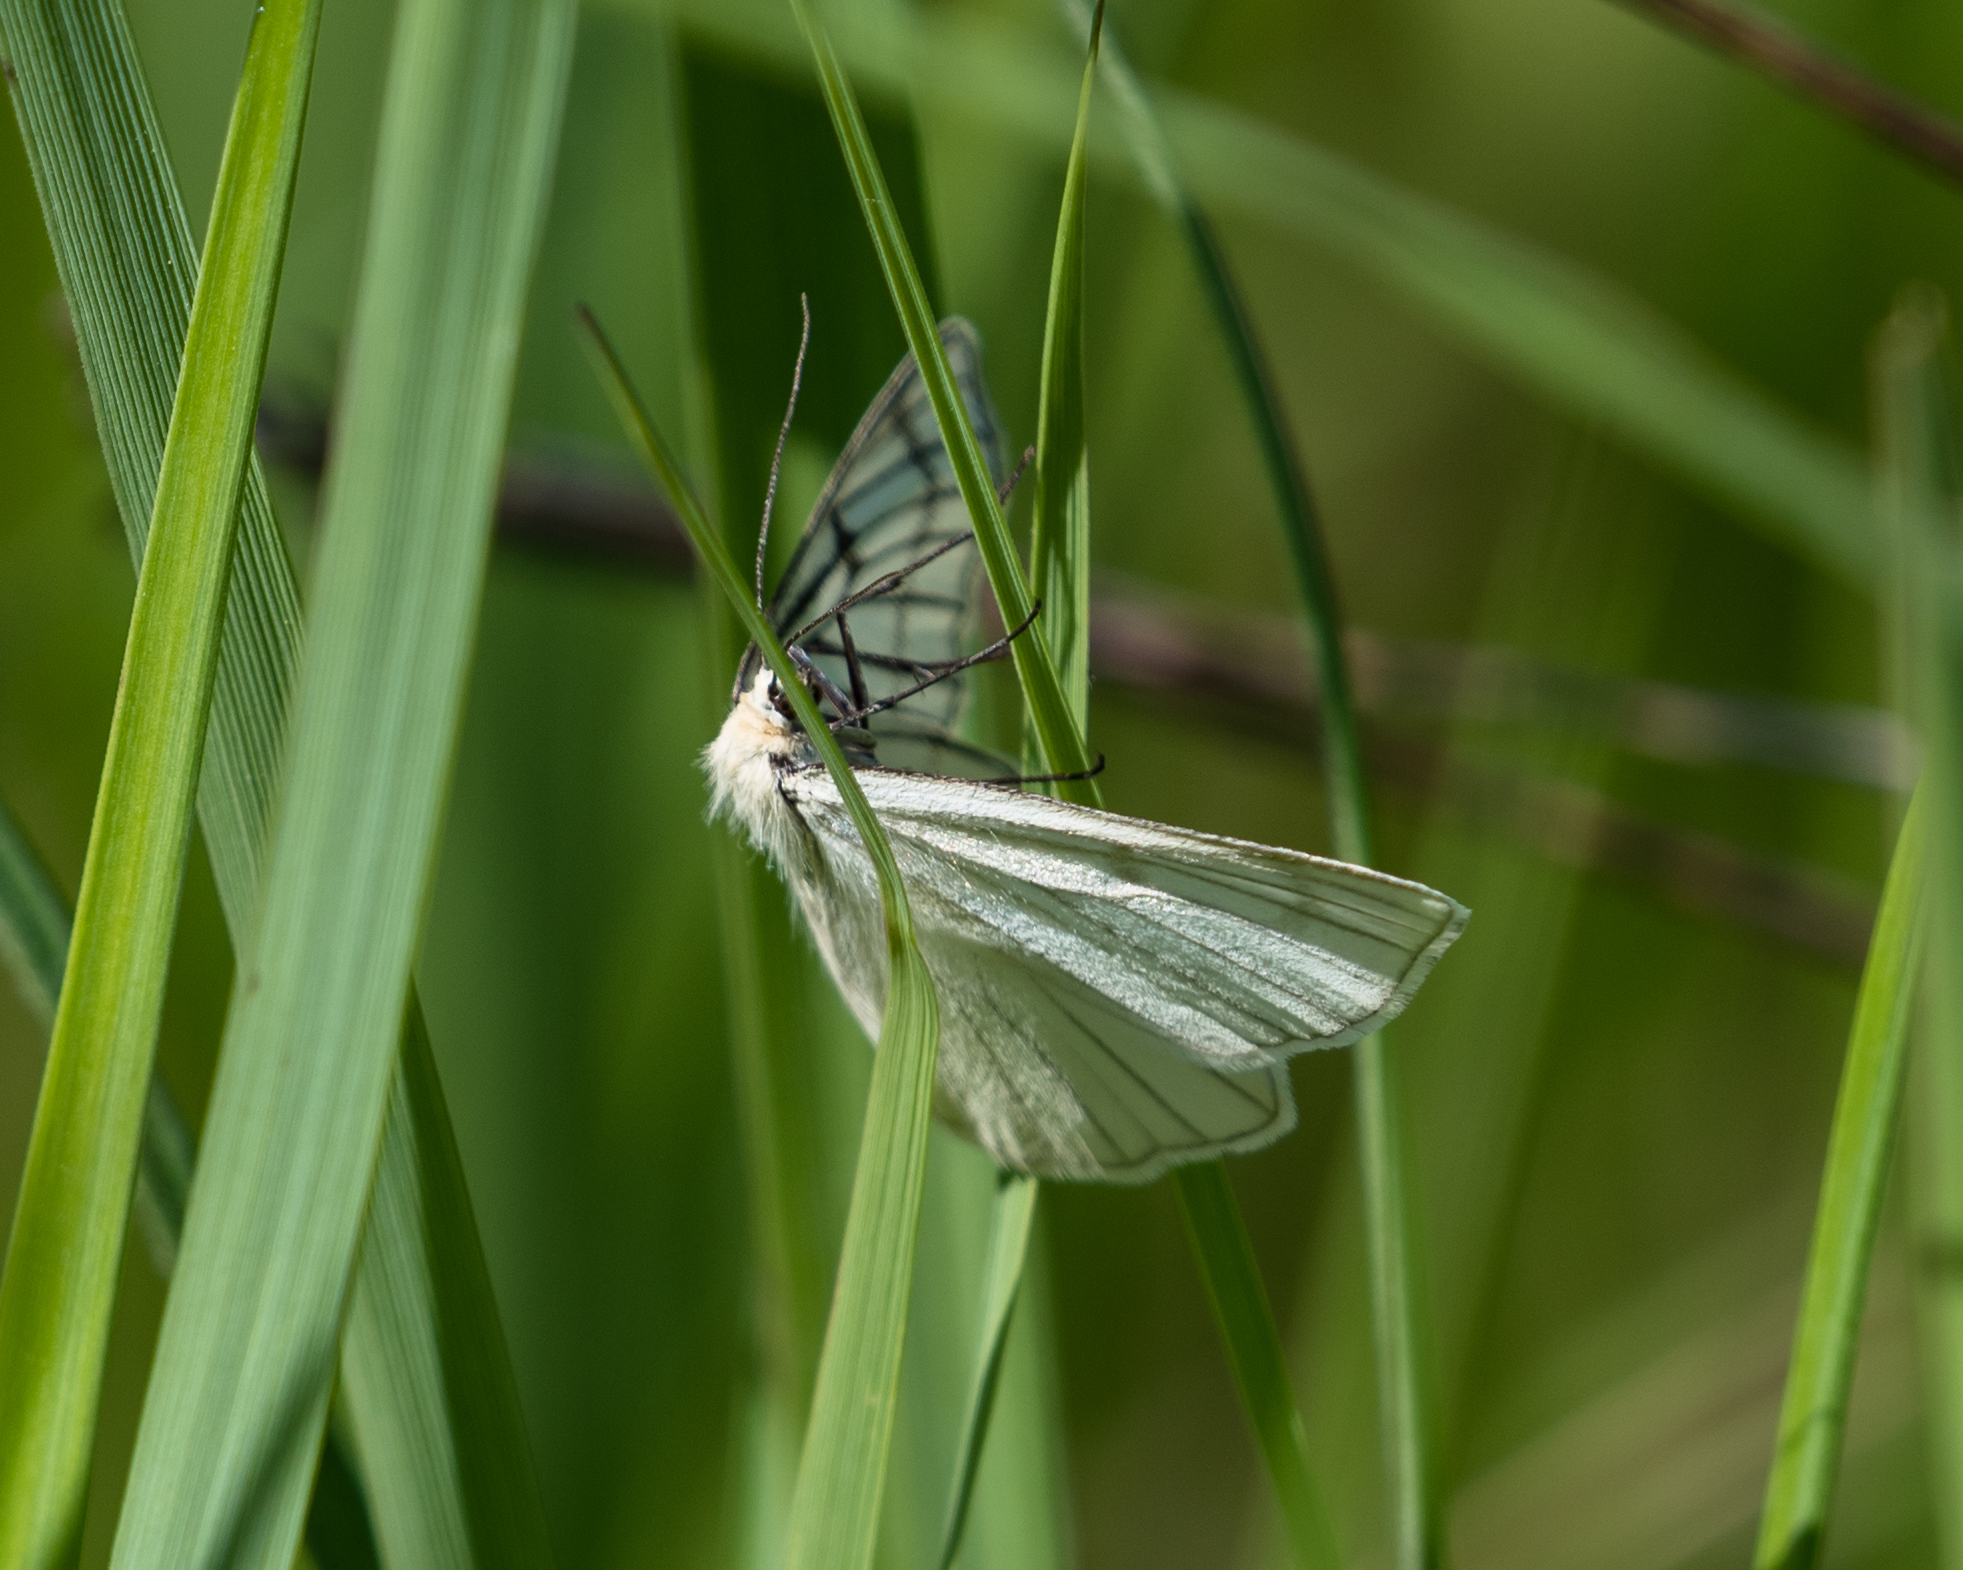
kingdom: Animalia
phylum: Arthropoda
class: Insecta
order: Lepidoptera
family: Geometridae
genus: Siona
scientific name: Siona lineata
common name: Black-veined moth
